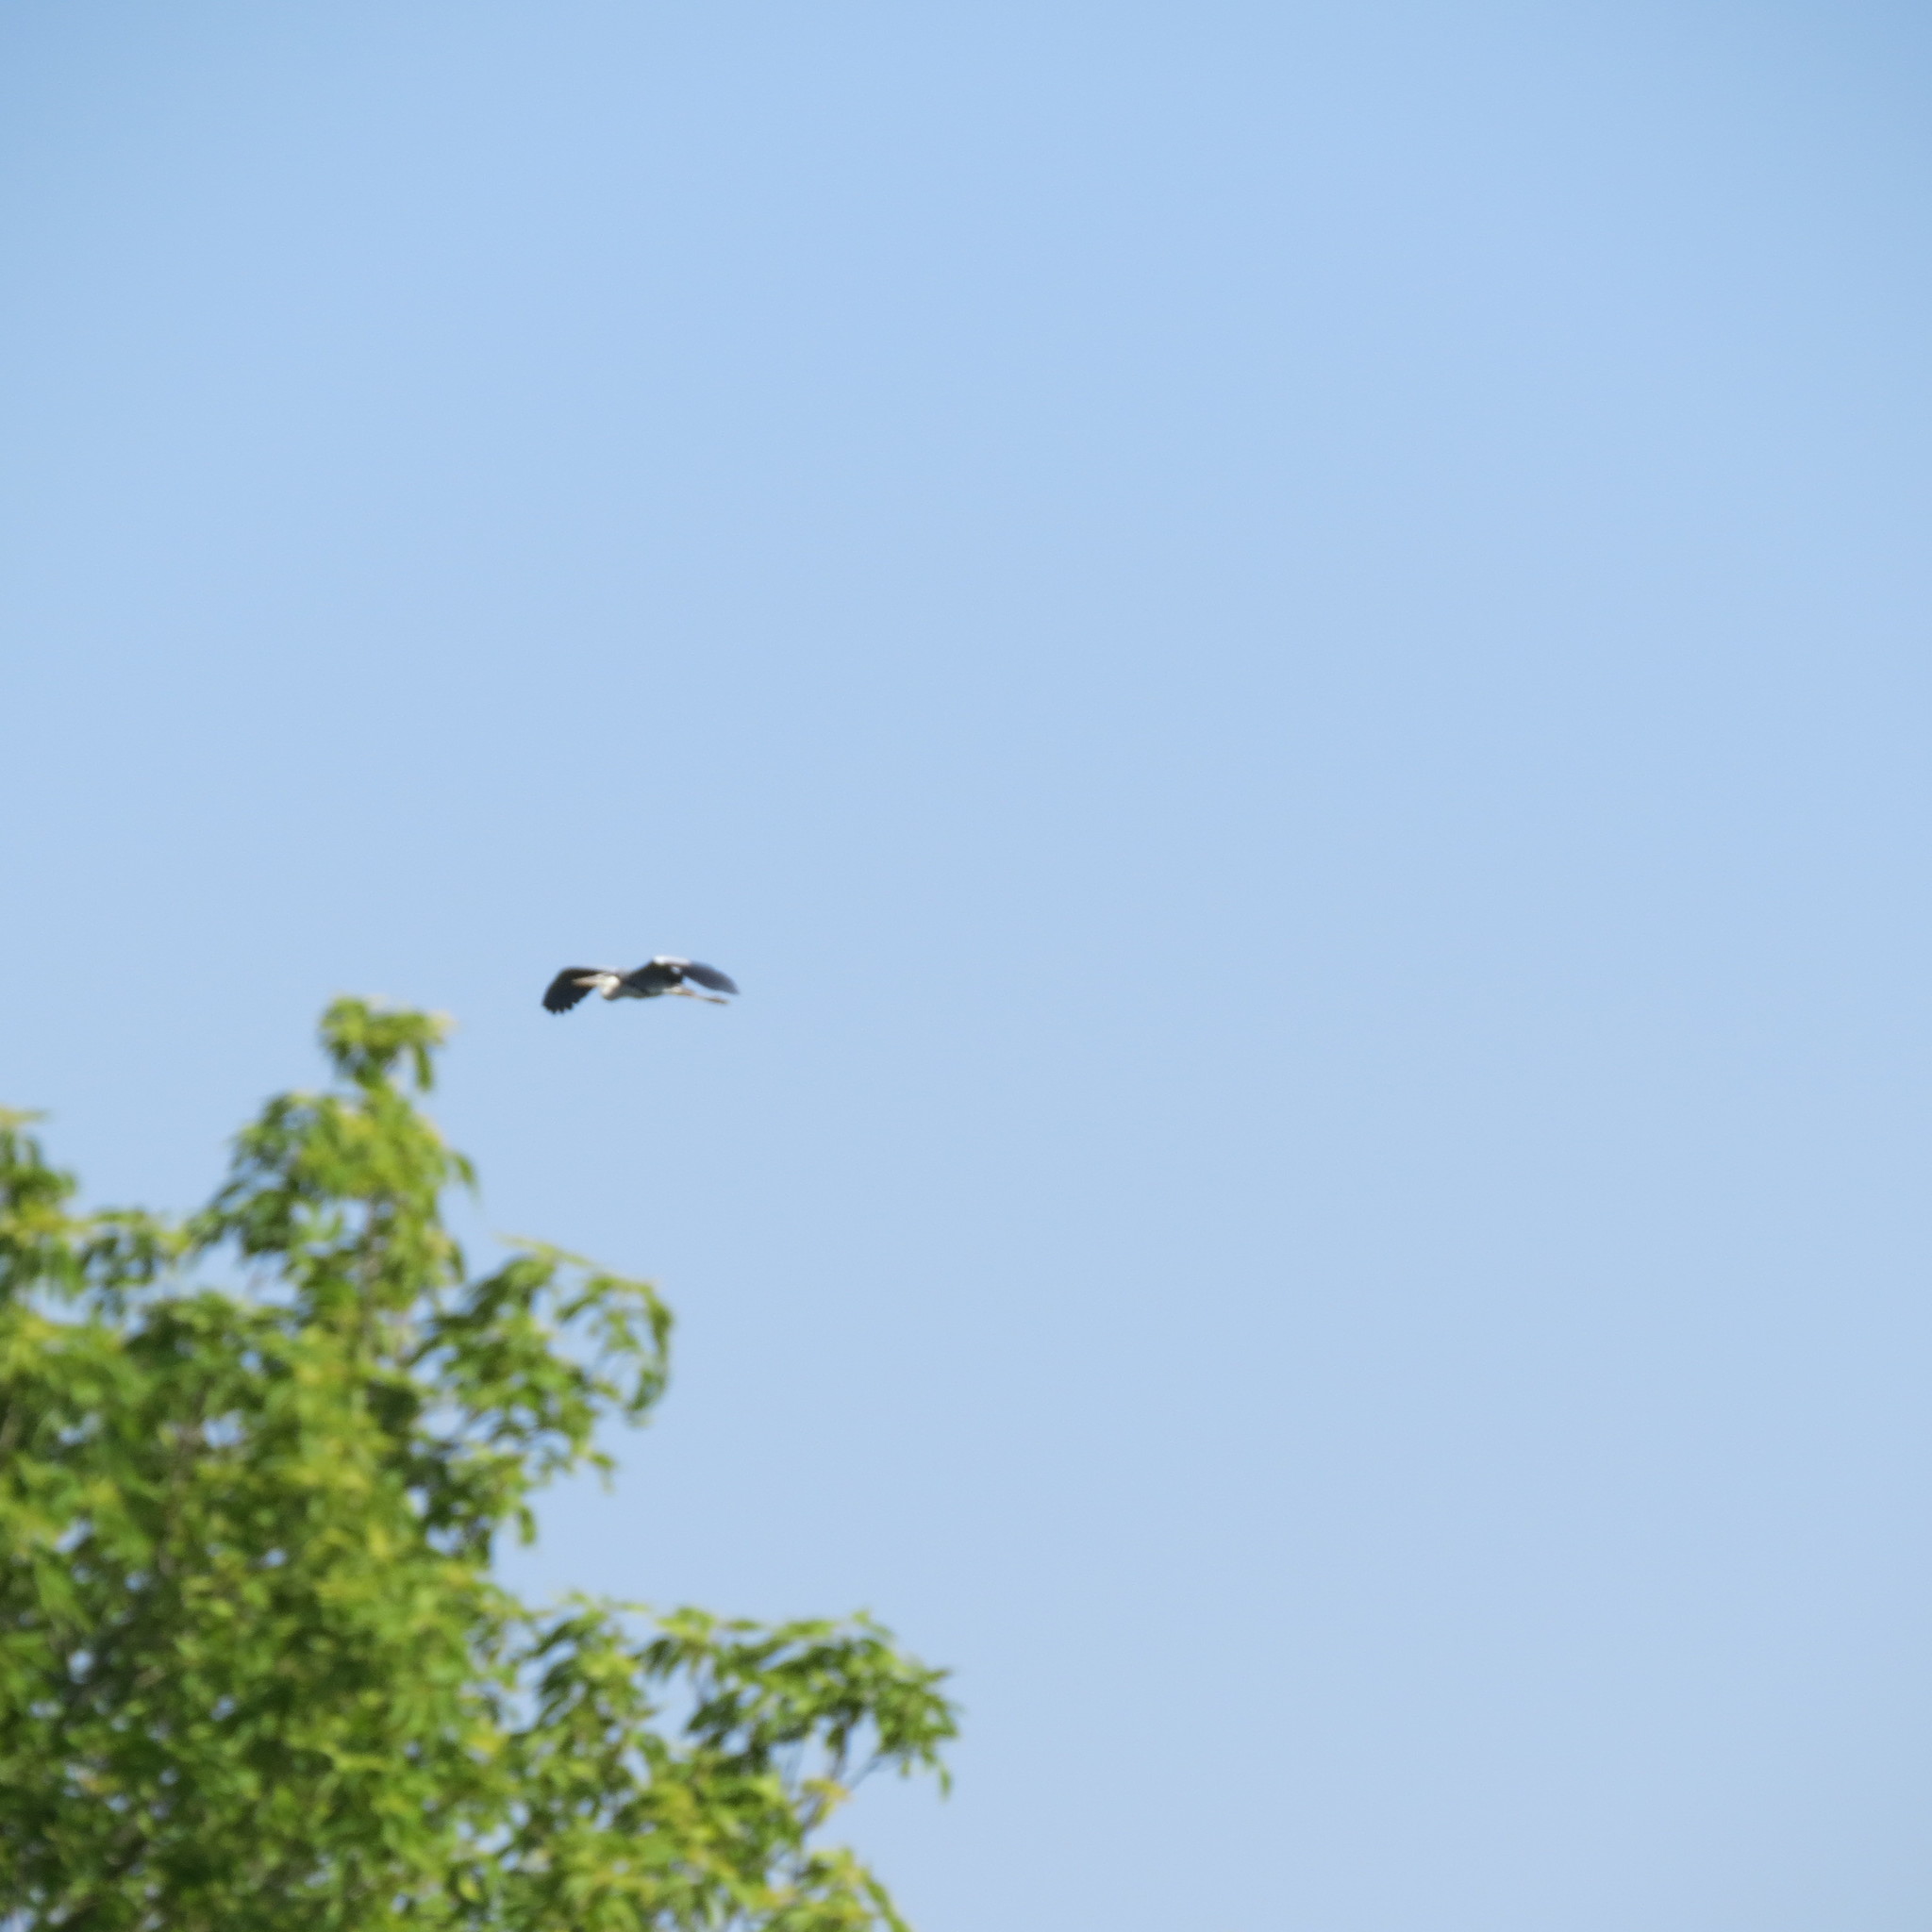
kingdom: Animalia
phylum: Chordata
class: Aves
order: Pelecaniformes
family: Ardeidae
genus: Ardea
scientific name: Ardea cinerea
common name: Grey heron
